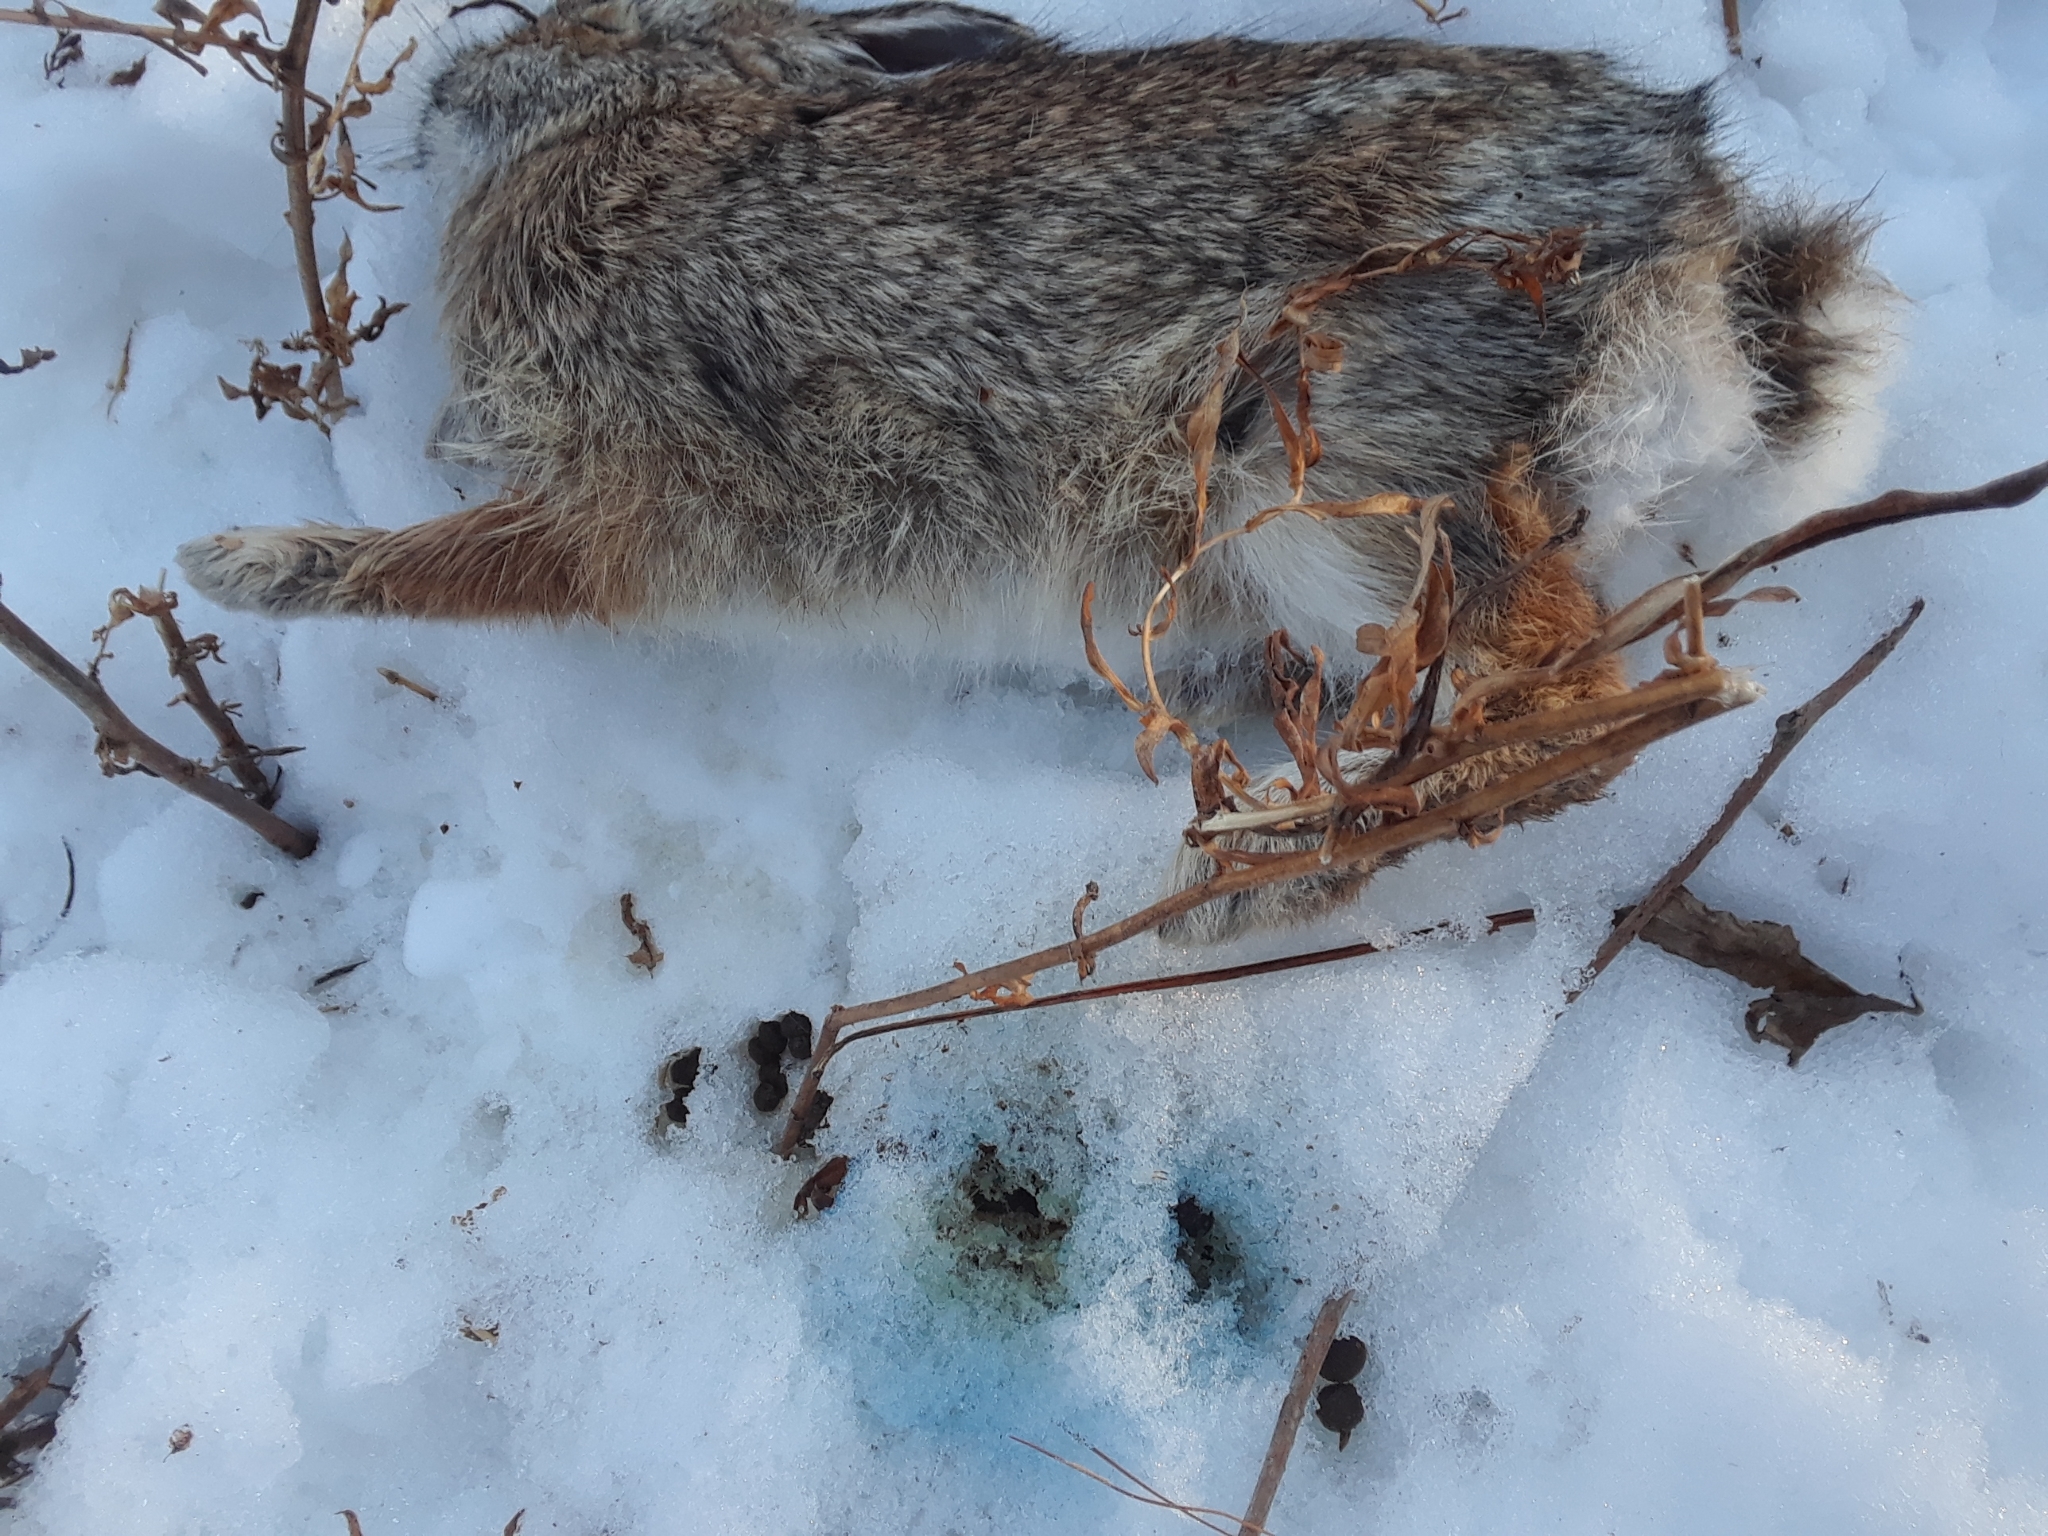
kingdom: Animalia
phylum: Chordata
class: Mammalia
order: Lagomorpha
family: Leporidae
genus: Sylvilagus
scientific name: Sylvilagus floridanus
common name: Eastern cottontail
